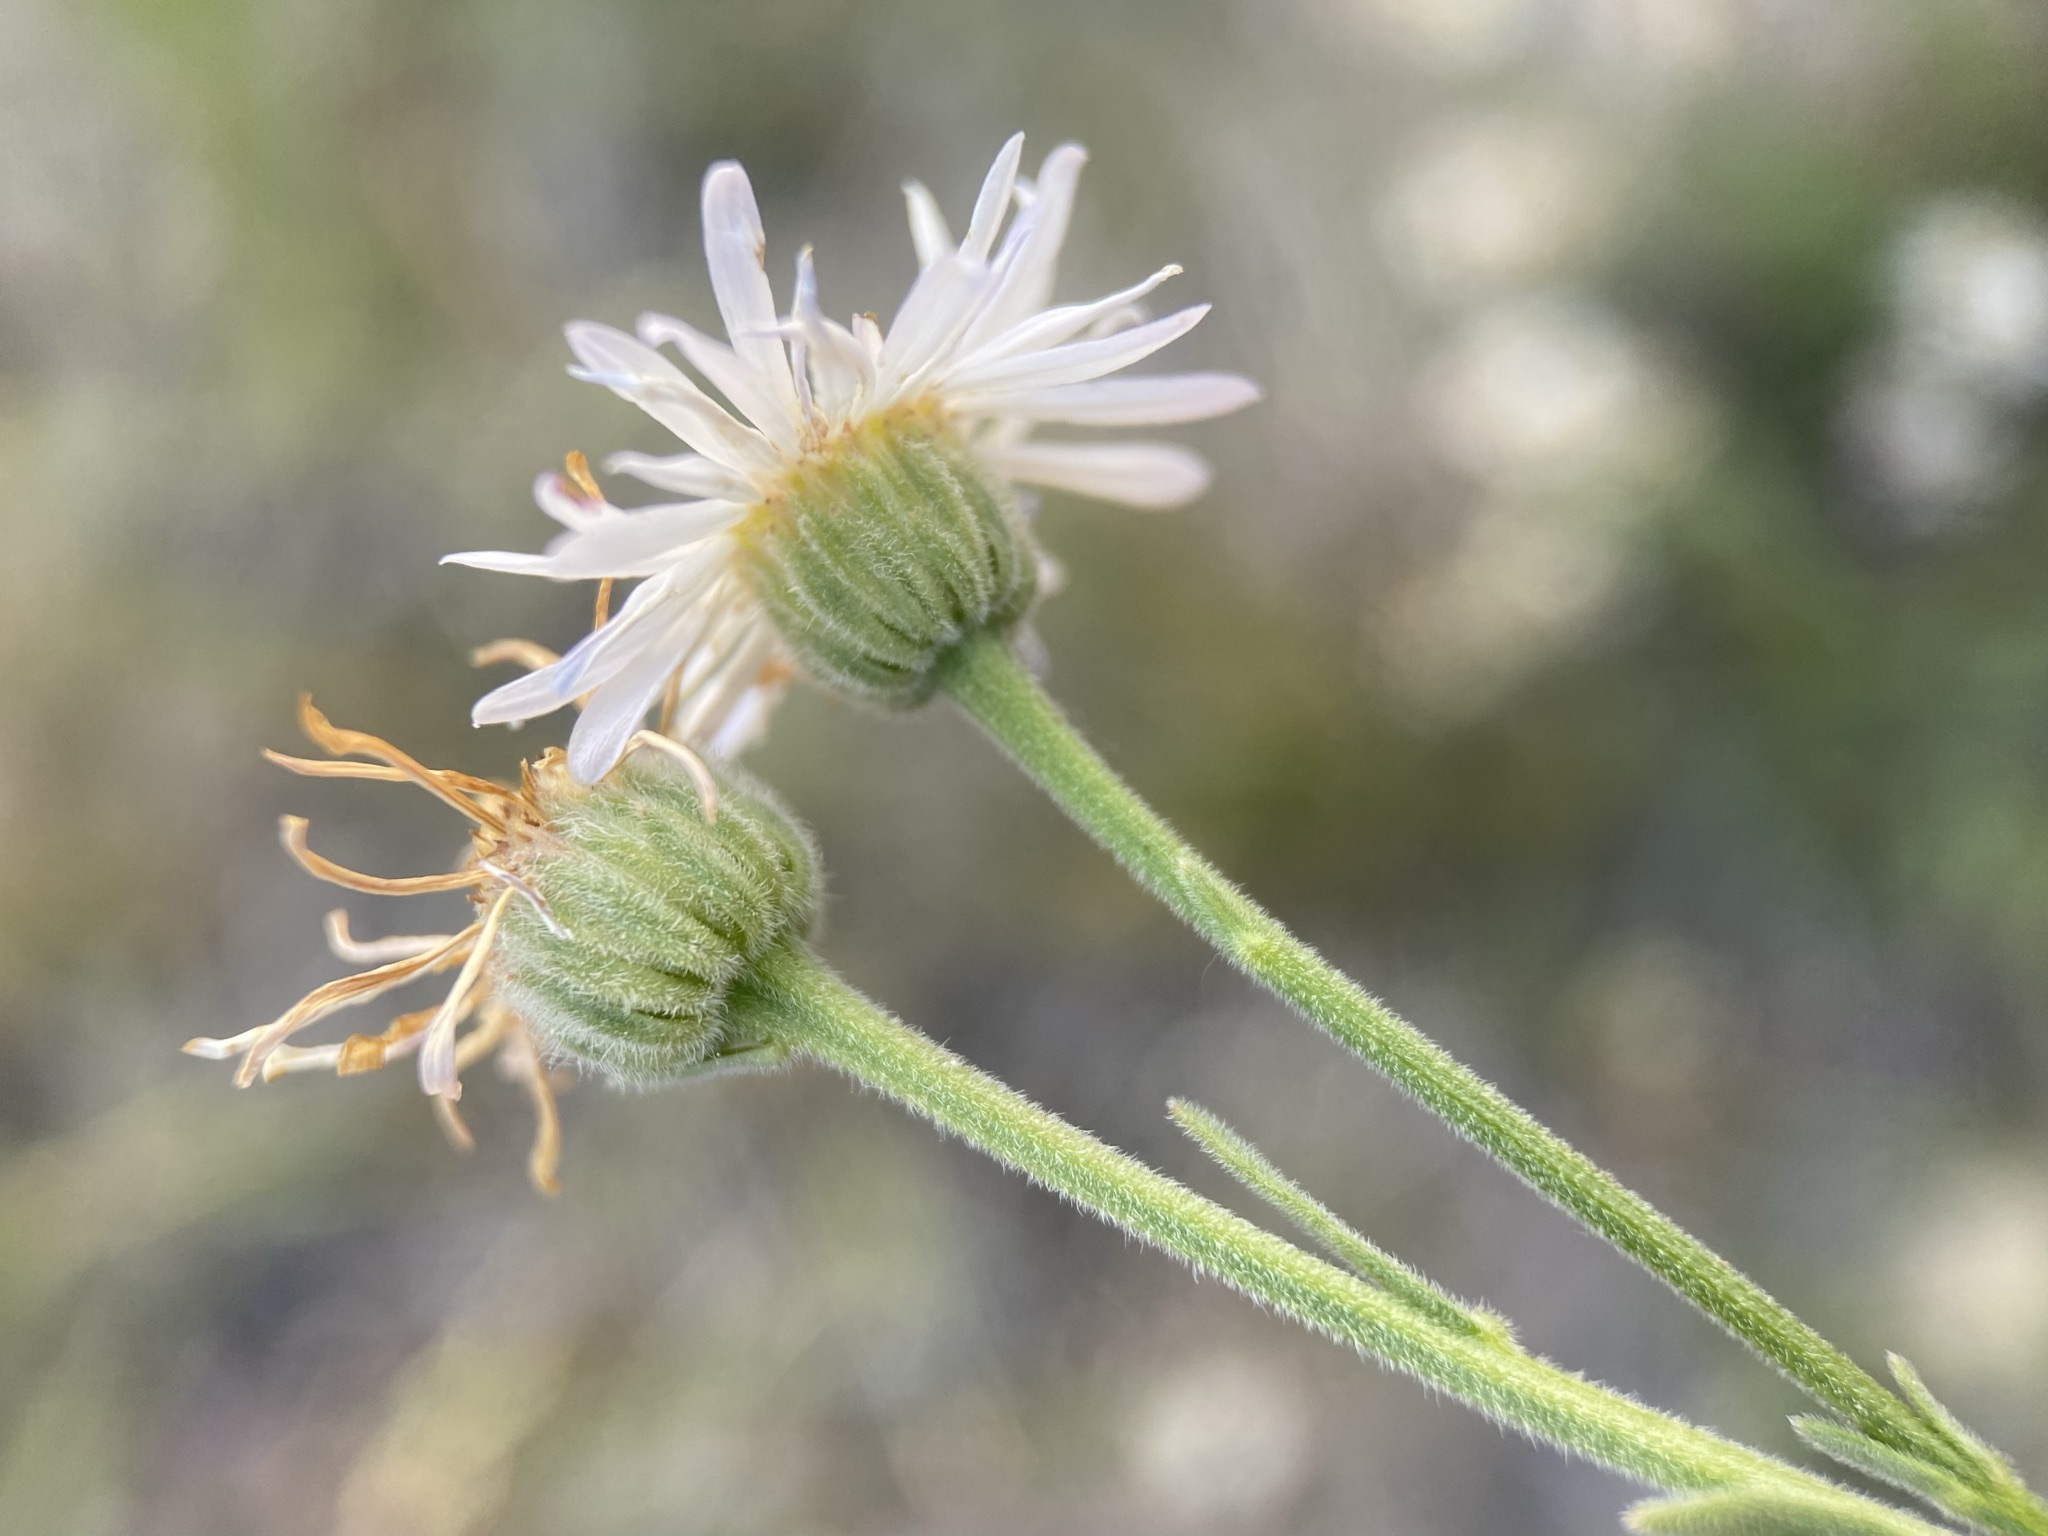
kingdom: Plantae
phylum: Tracheophyta
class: Magnoliopsida
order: Asterales
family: Asteraceae
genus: Erigeron
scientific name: Erigeron pumilus
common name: Shaggy fleabane
